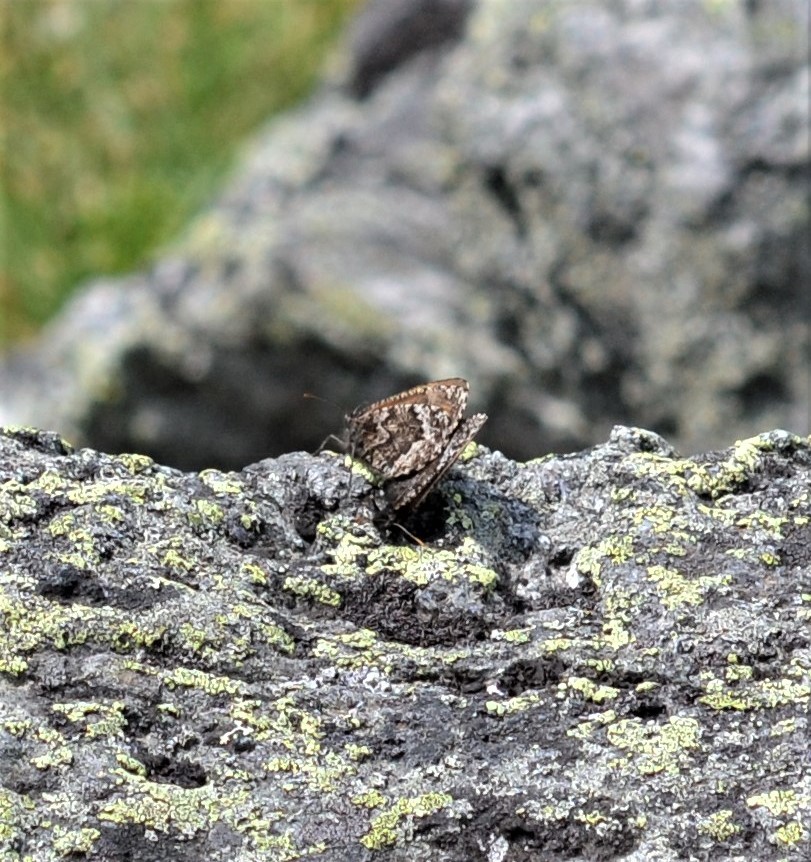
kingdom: Animalia
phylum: Arthropoda
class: Insecta
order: Lepidoptera
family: Nymphalidae
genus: Oeneis
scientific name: Oeneis semidea
